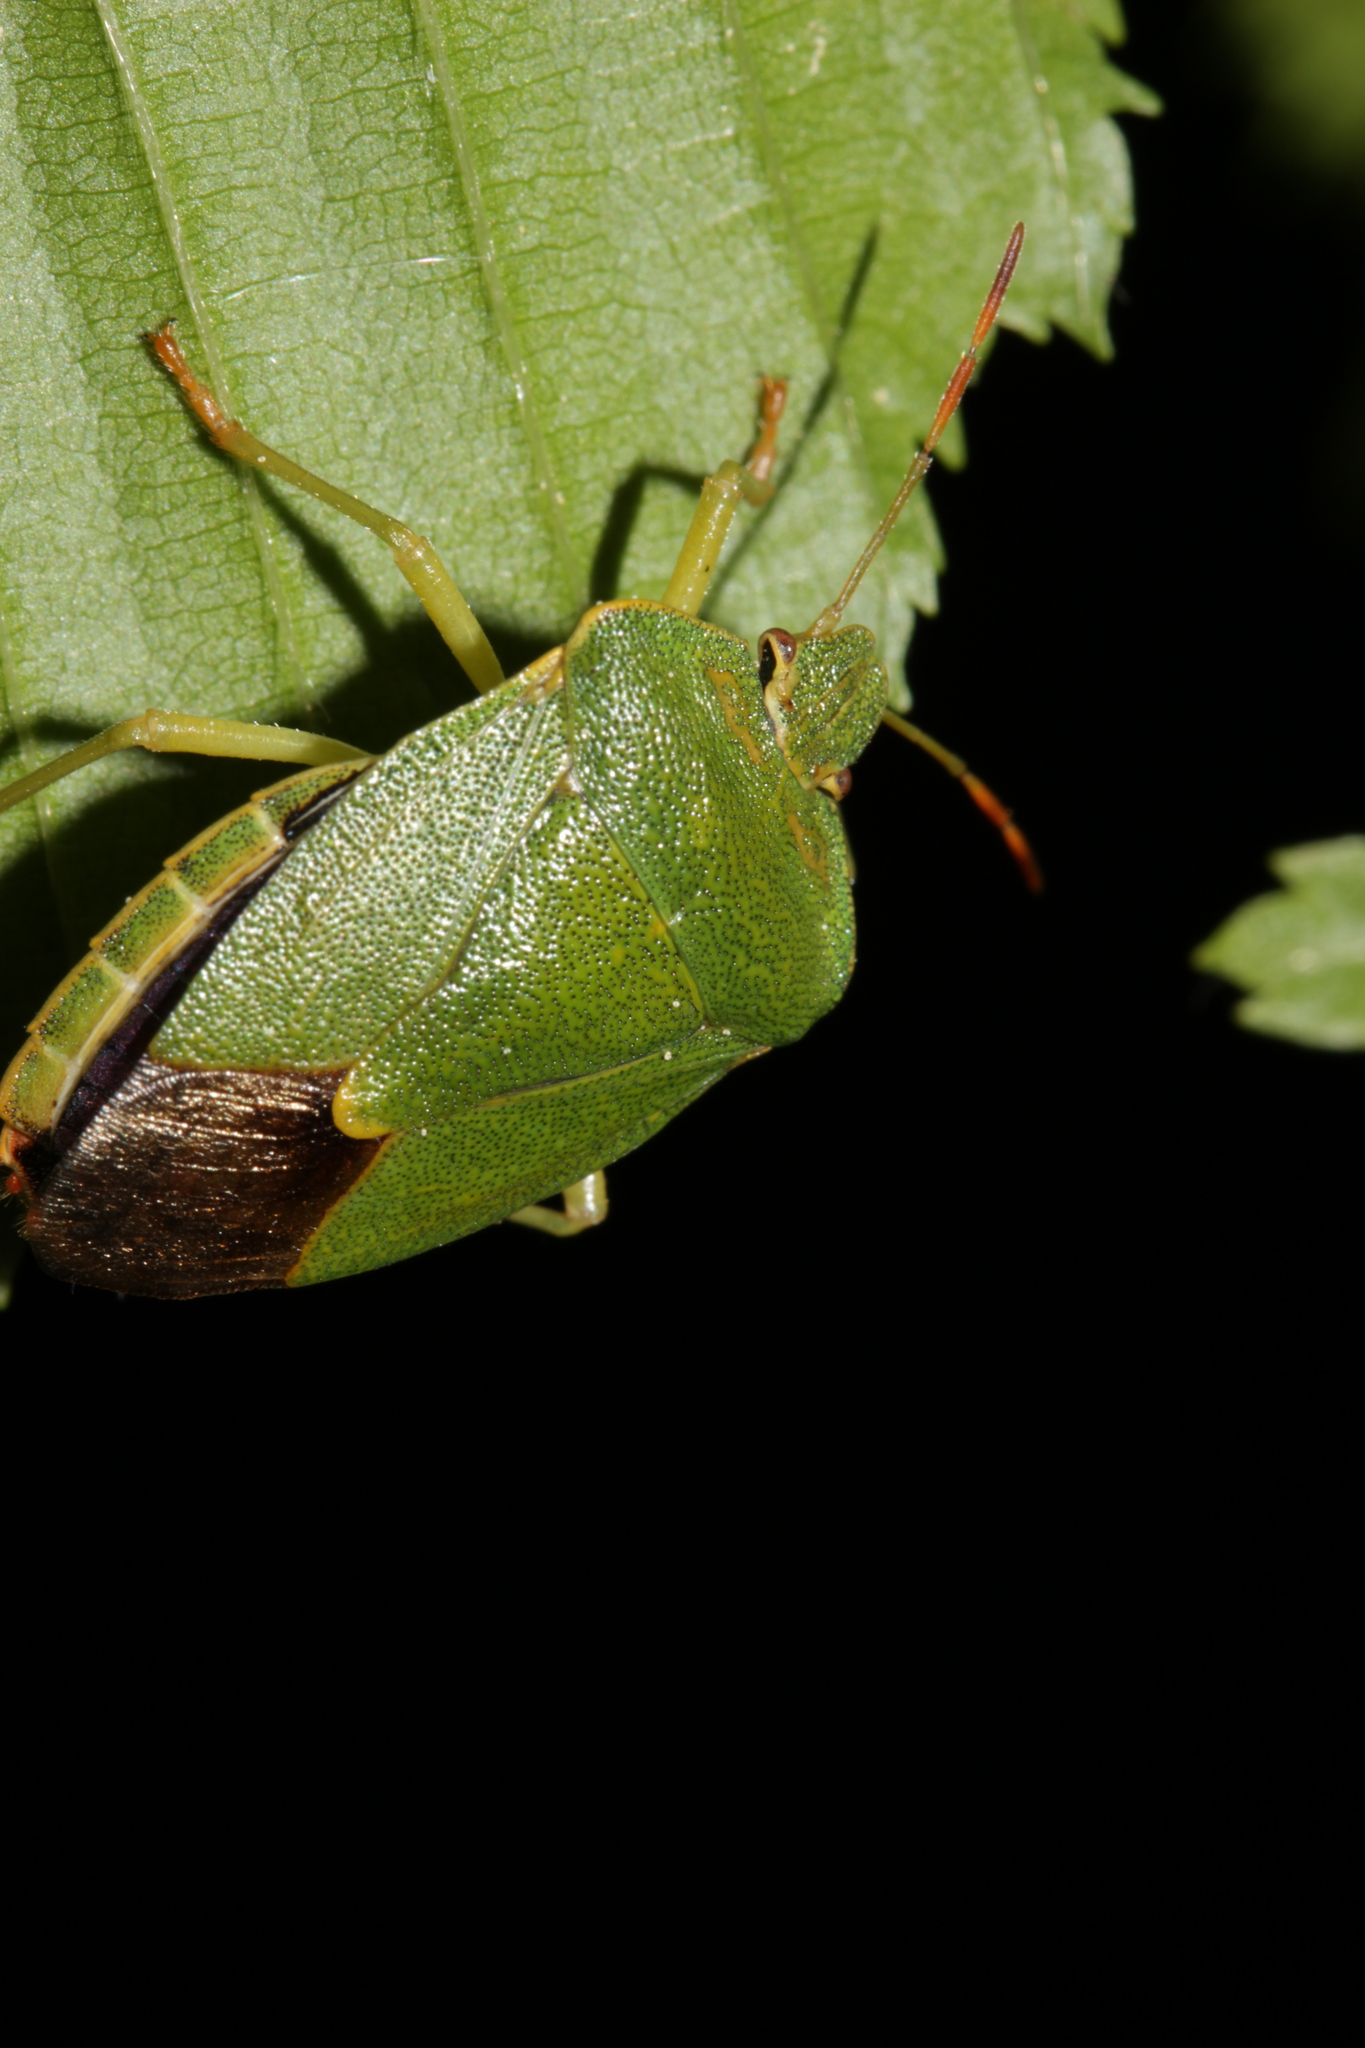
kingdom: Animalia
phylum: Arthropoda
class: Insecta
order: Hemiptera
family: Pentatomidae
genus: Palomena
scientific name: Palomena prasina
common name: Green shieldbug
